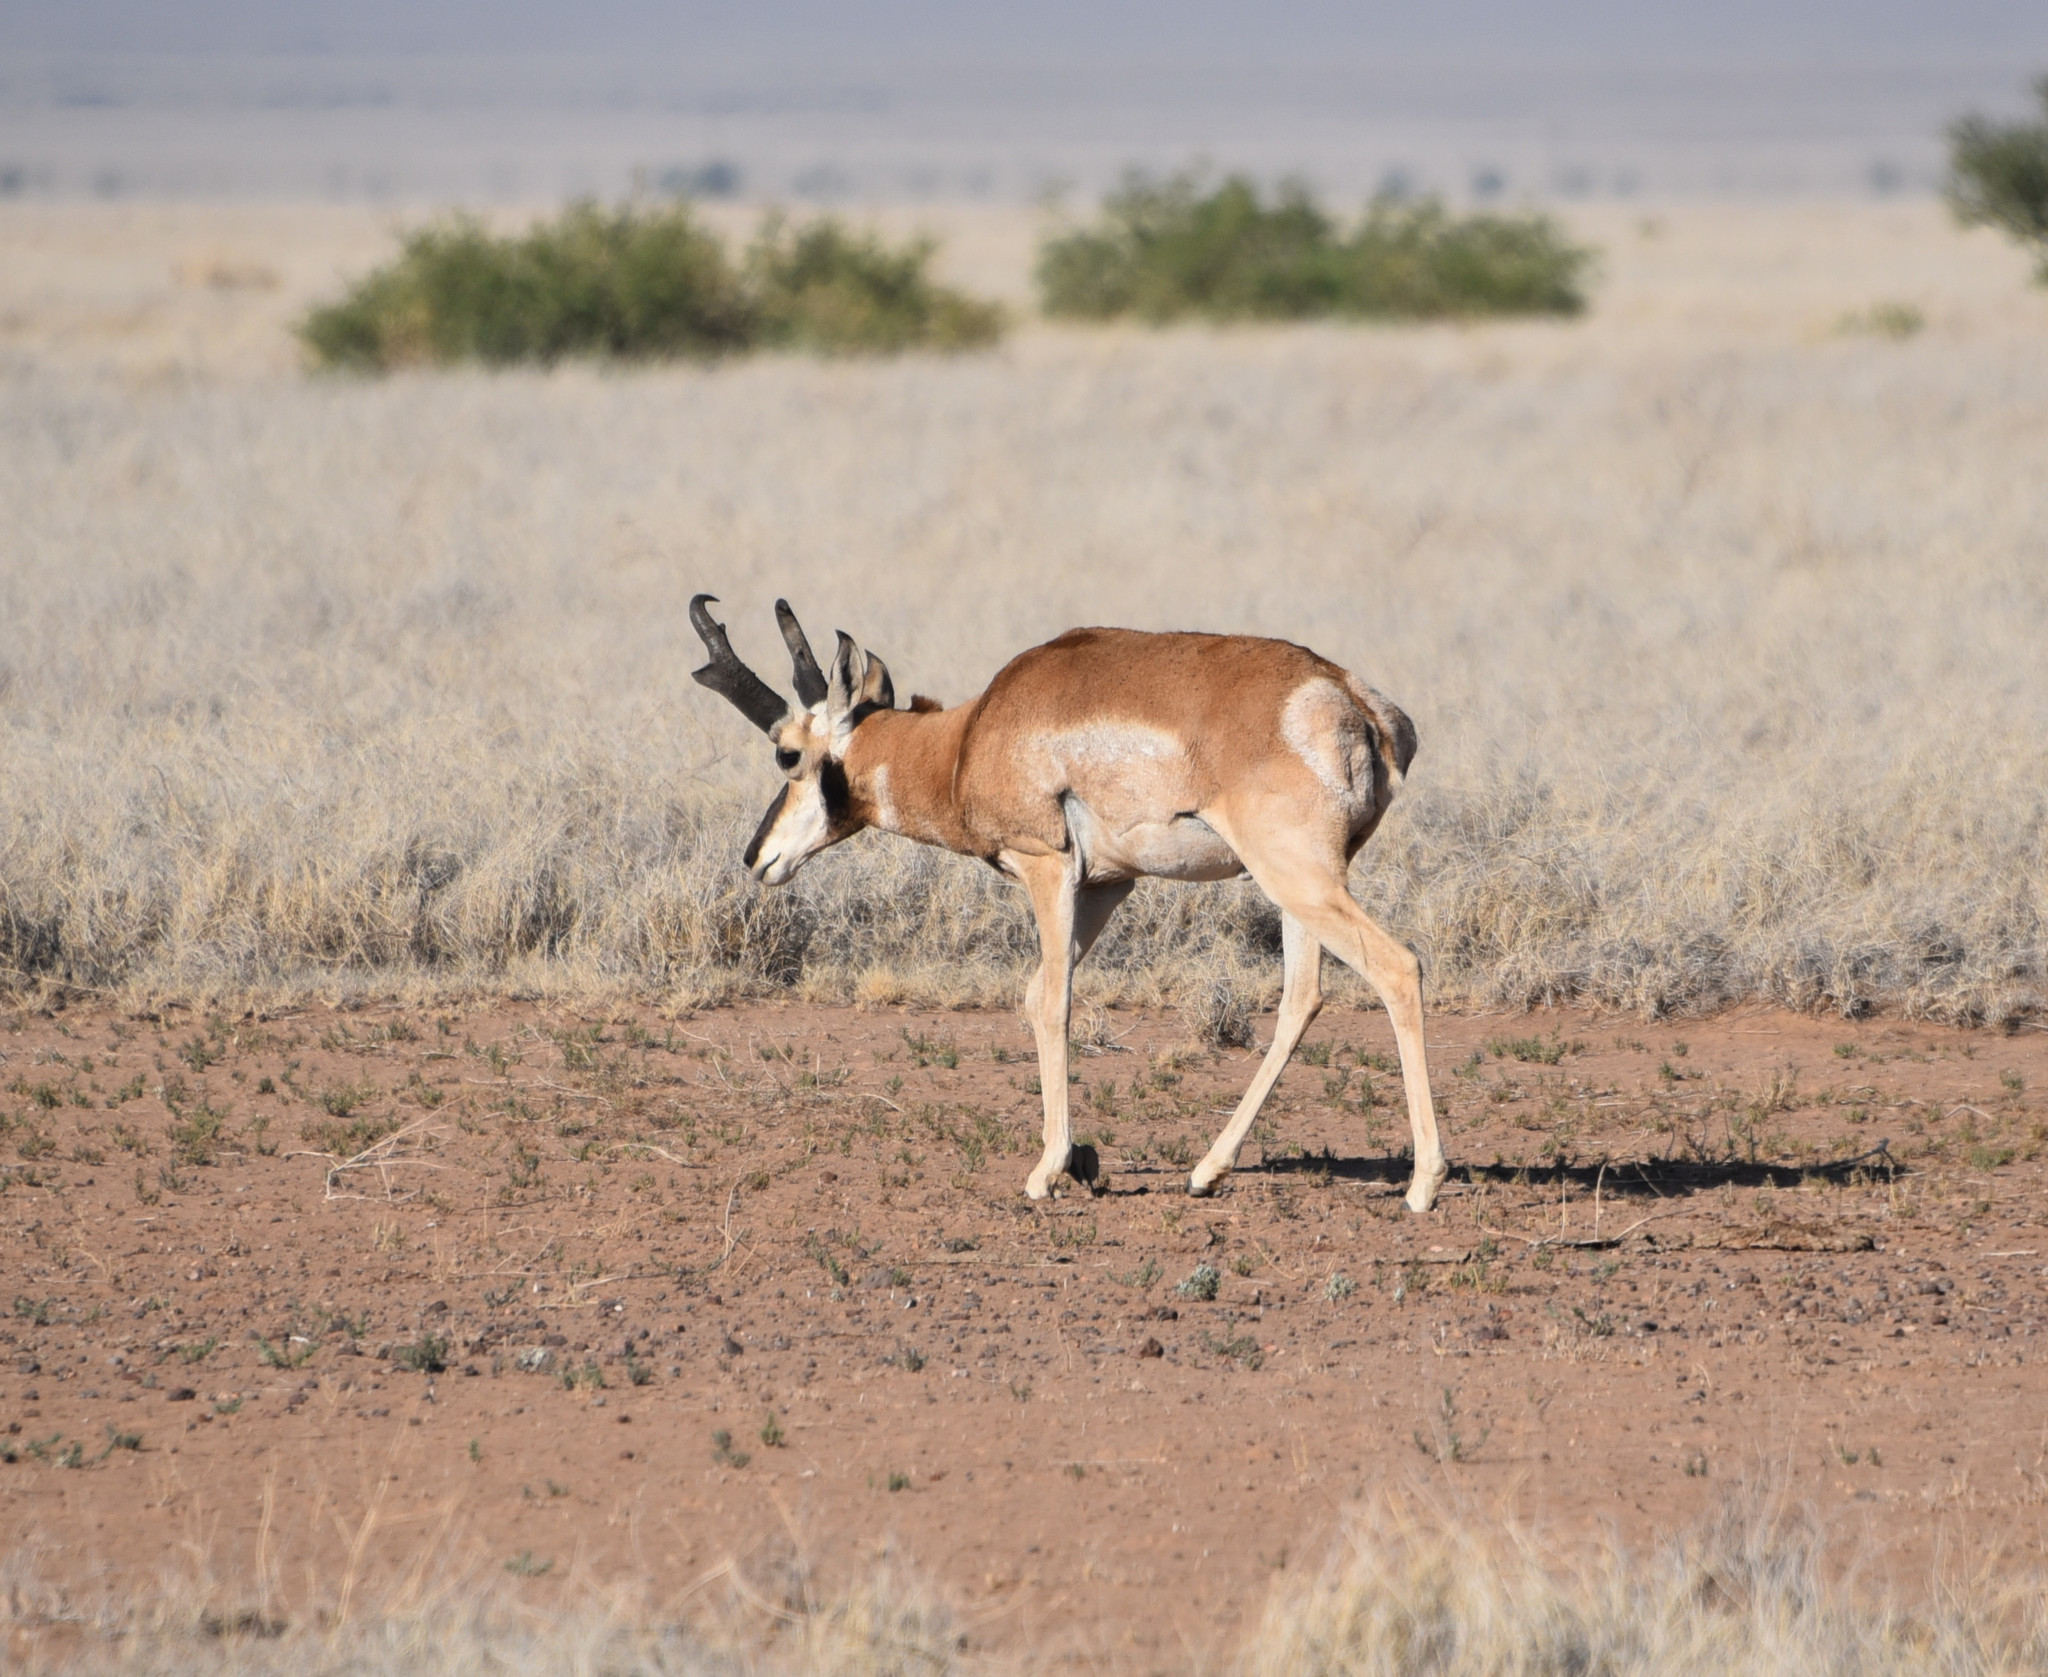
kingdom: Animalia
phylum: Chordata
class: Mammalia
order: Artiodactyla
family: Antilocapridae
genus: Antilocapra
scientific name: Antilocapra americana
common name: Pronghorn
